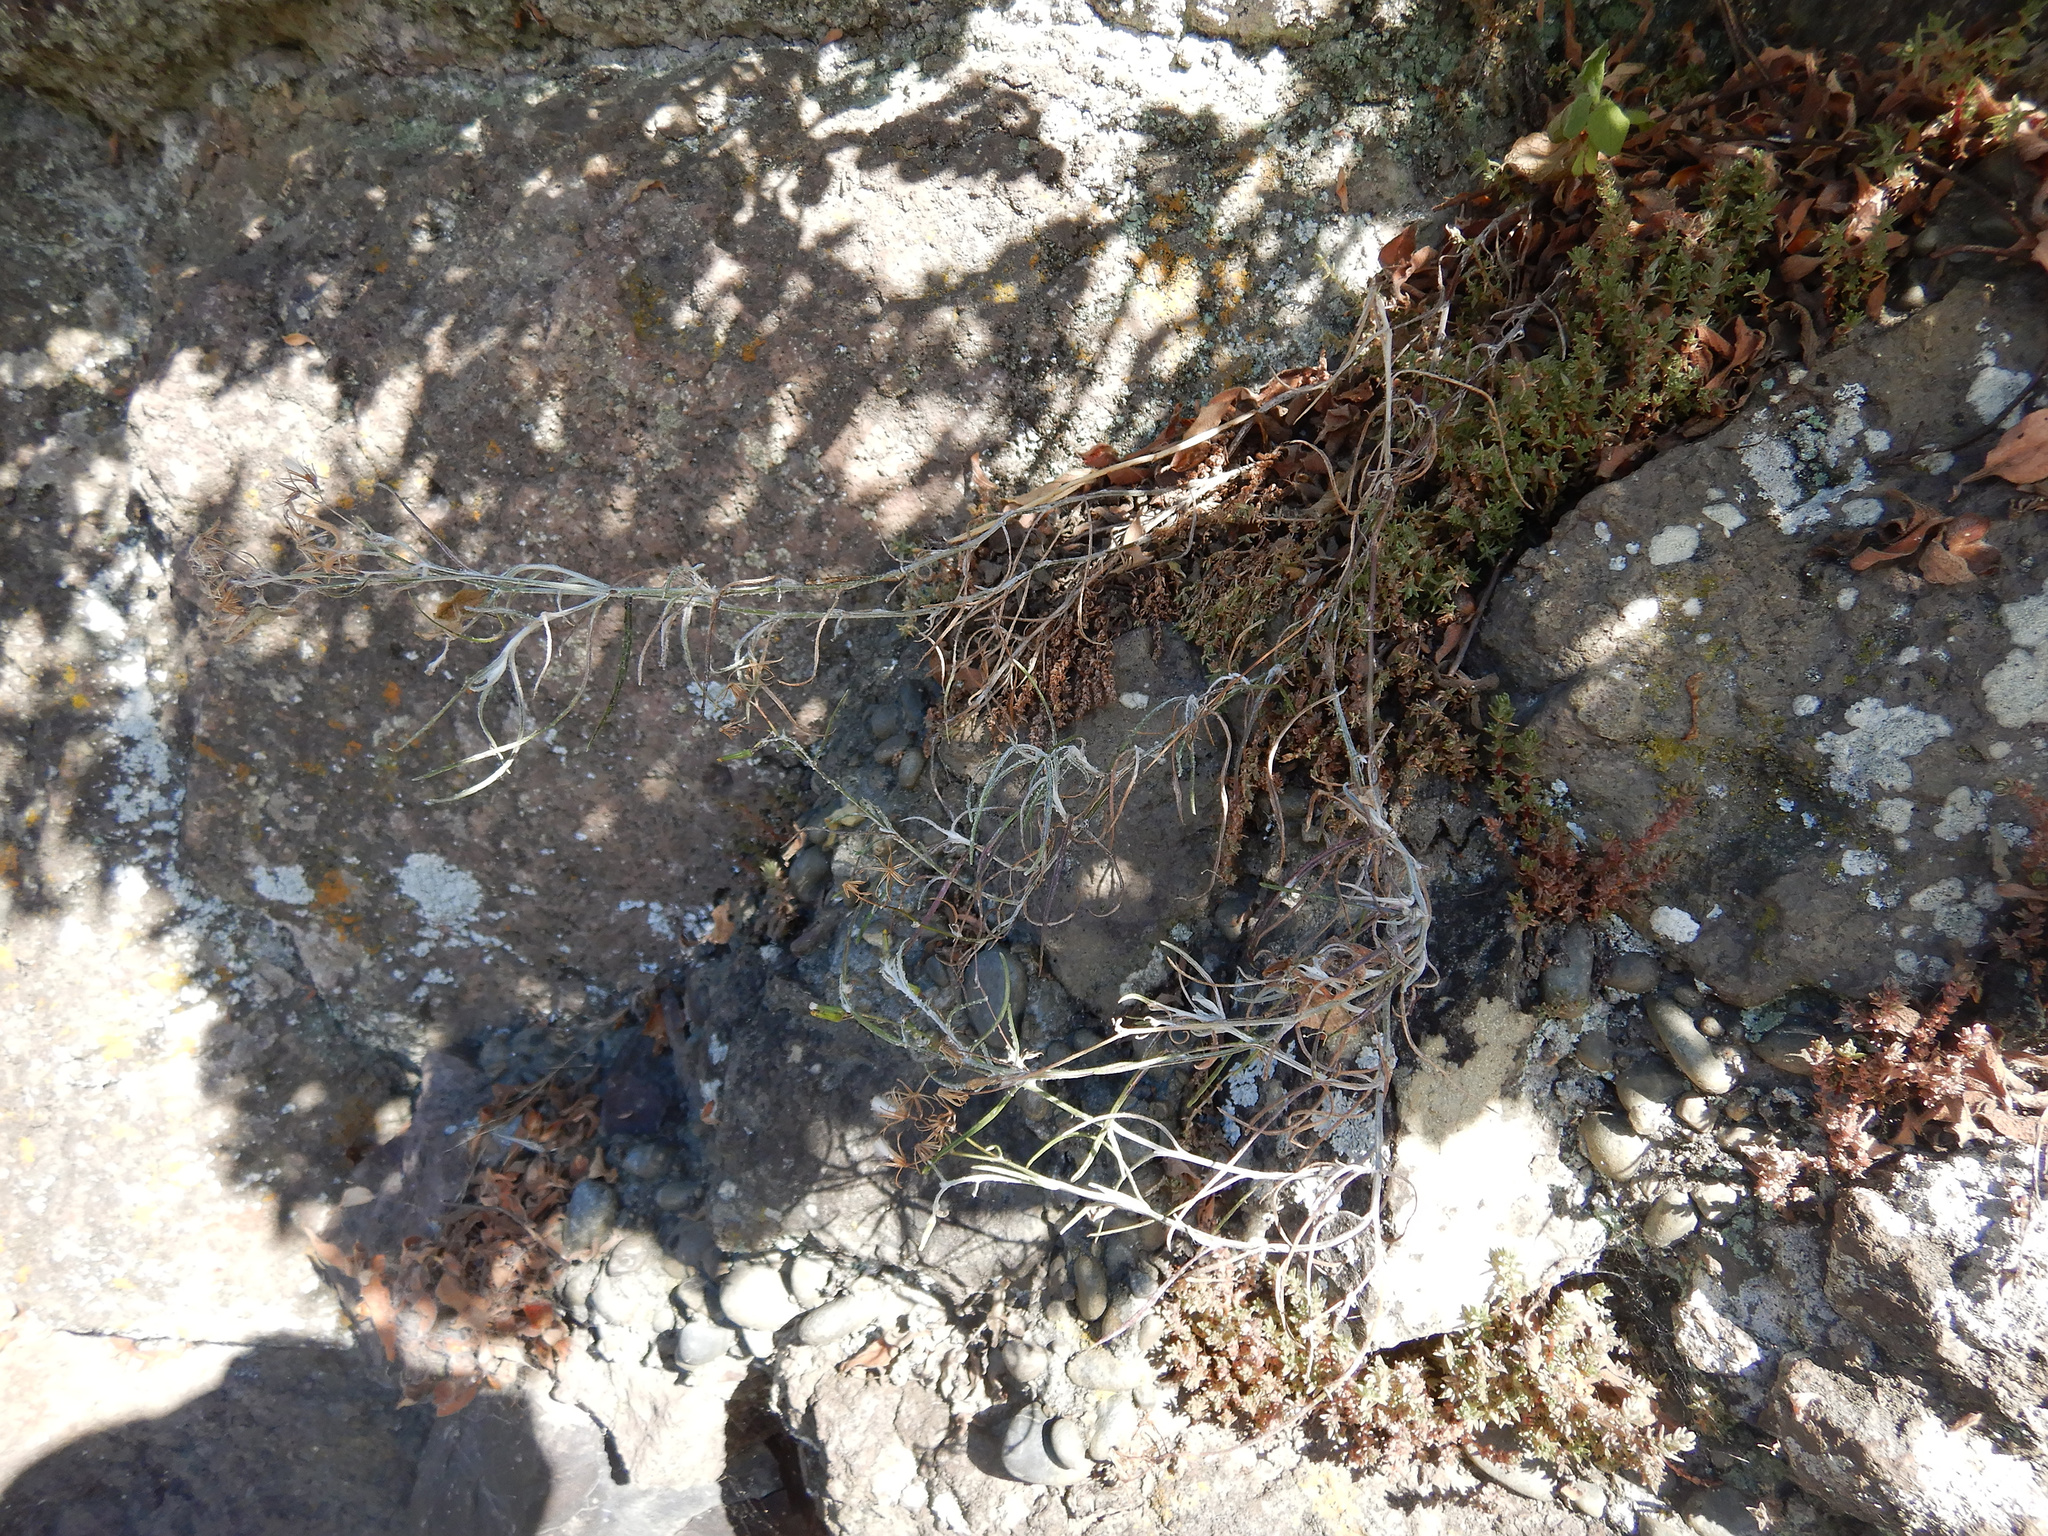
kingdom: Plantae
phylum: Tracheophyta
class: Magnoliopsida
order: Asterales
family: Asteraceae
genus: Senecio
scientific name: Senecio quadridentatus
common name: Cotton fireweed
